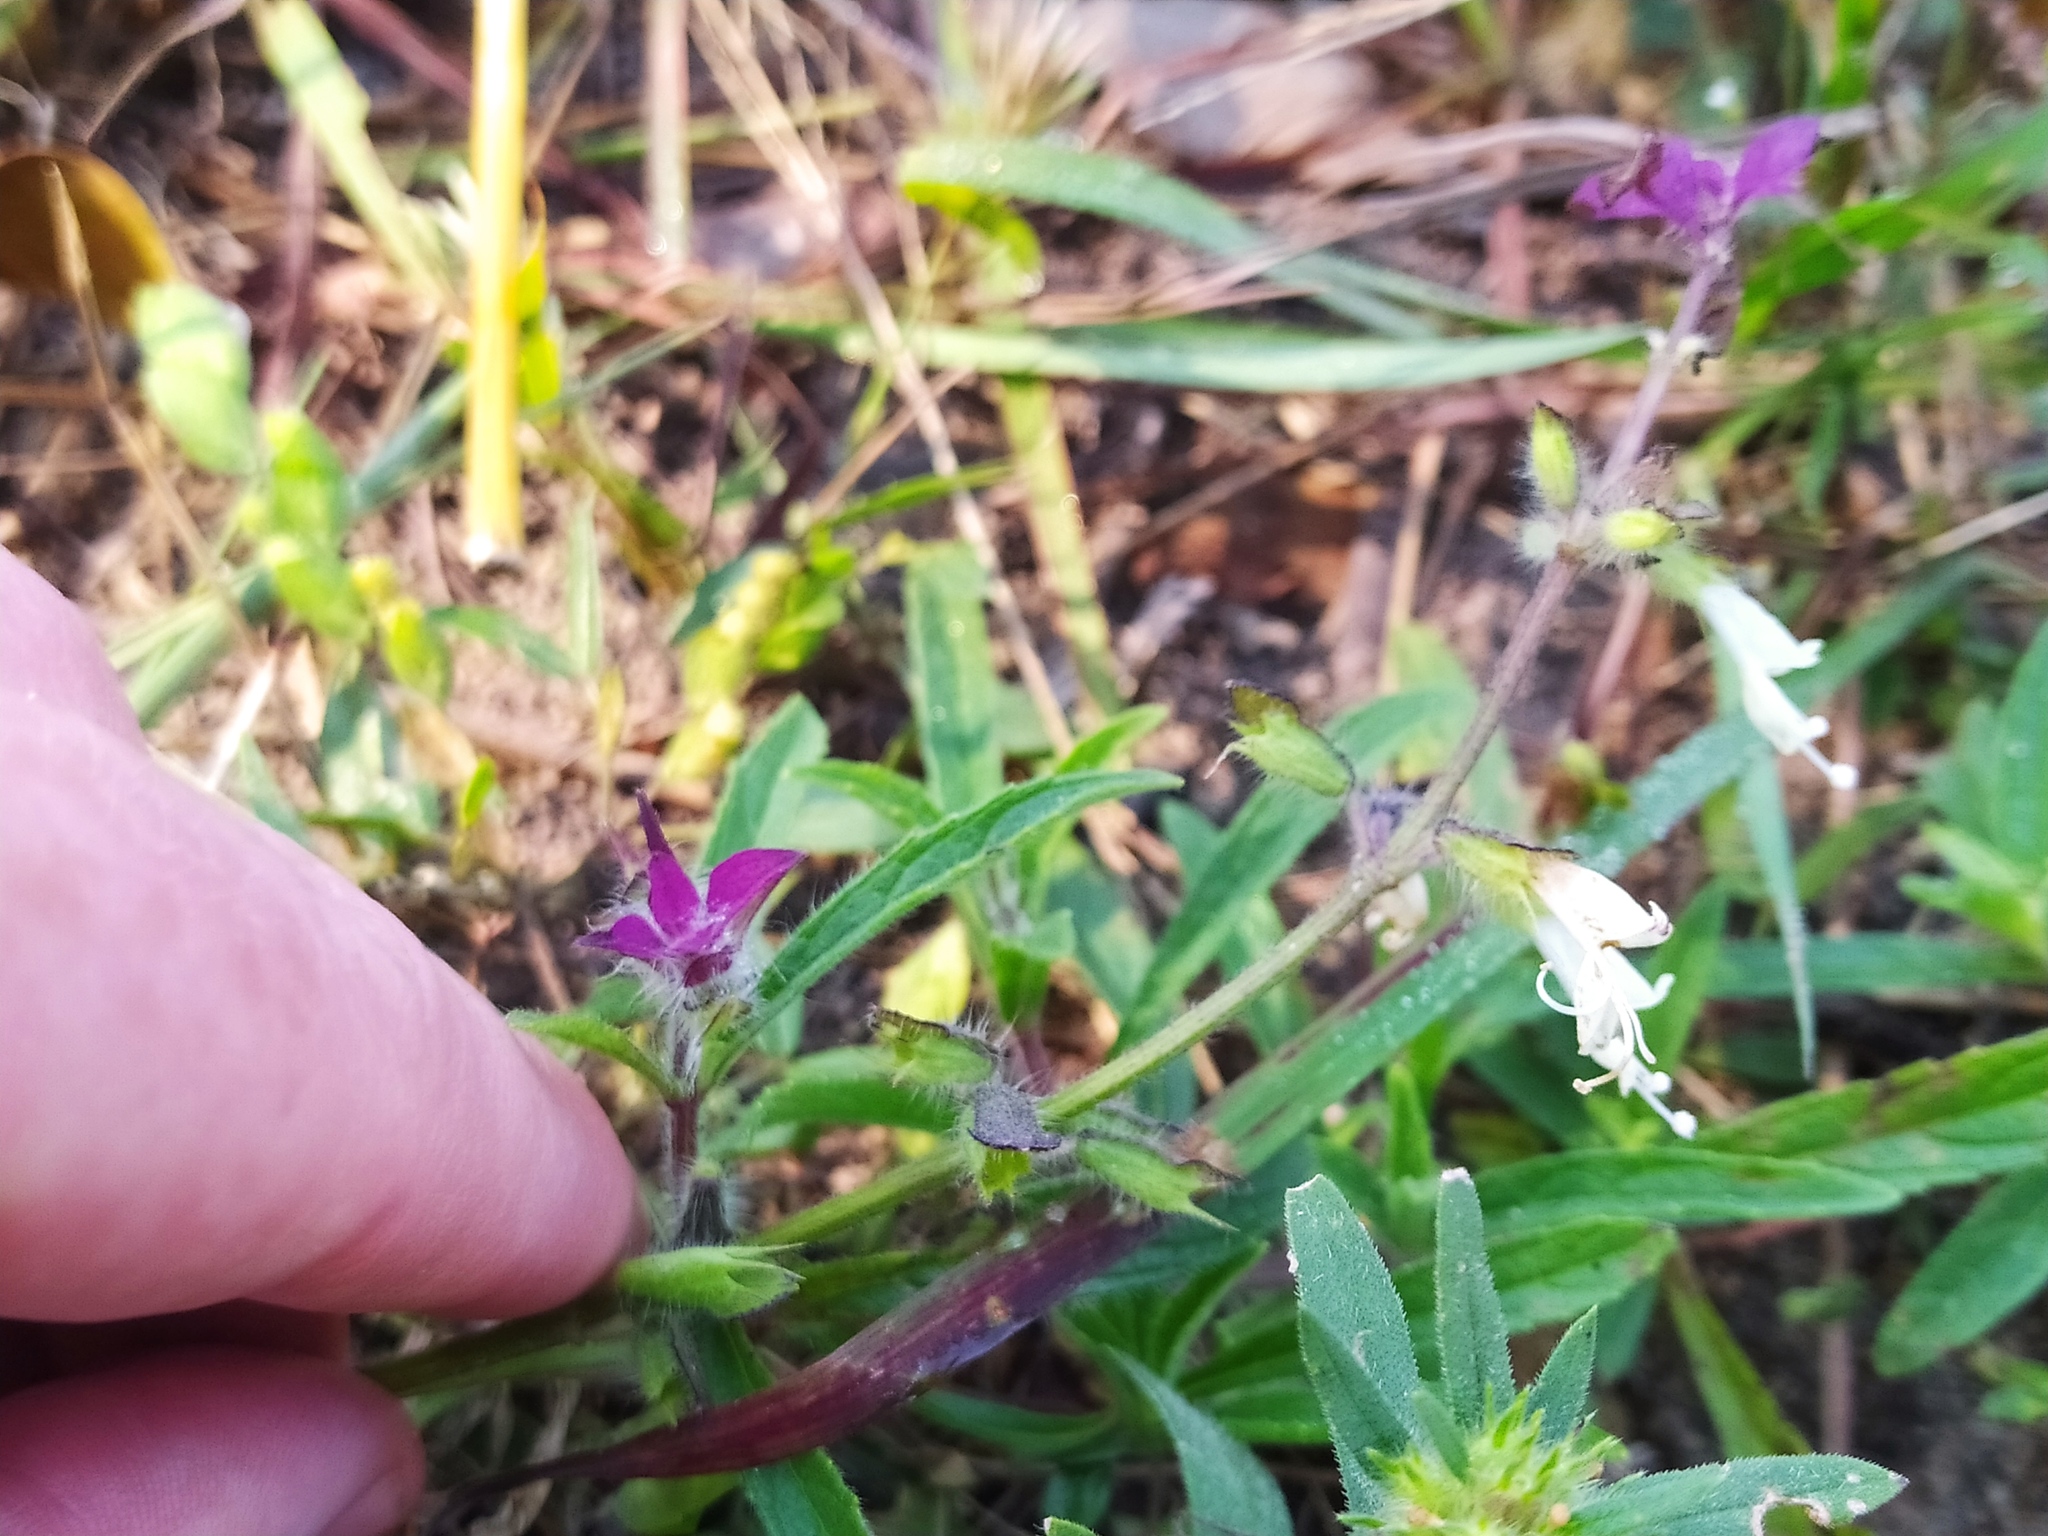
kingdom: Plantae
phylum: Tracheophyta
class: Magnoliopsida
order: Lamiales
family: Lamiaceae
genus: Syncolostemon
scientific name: Syncolostemon bracteosus
